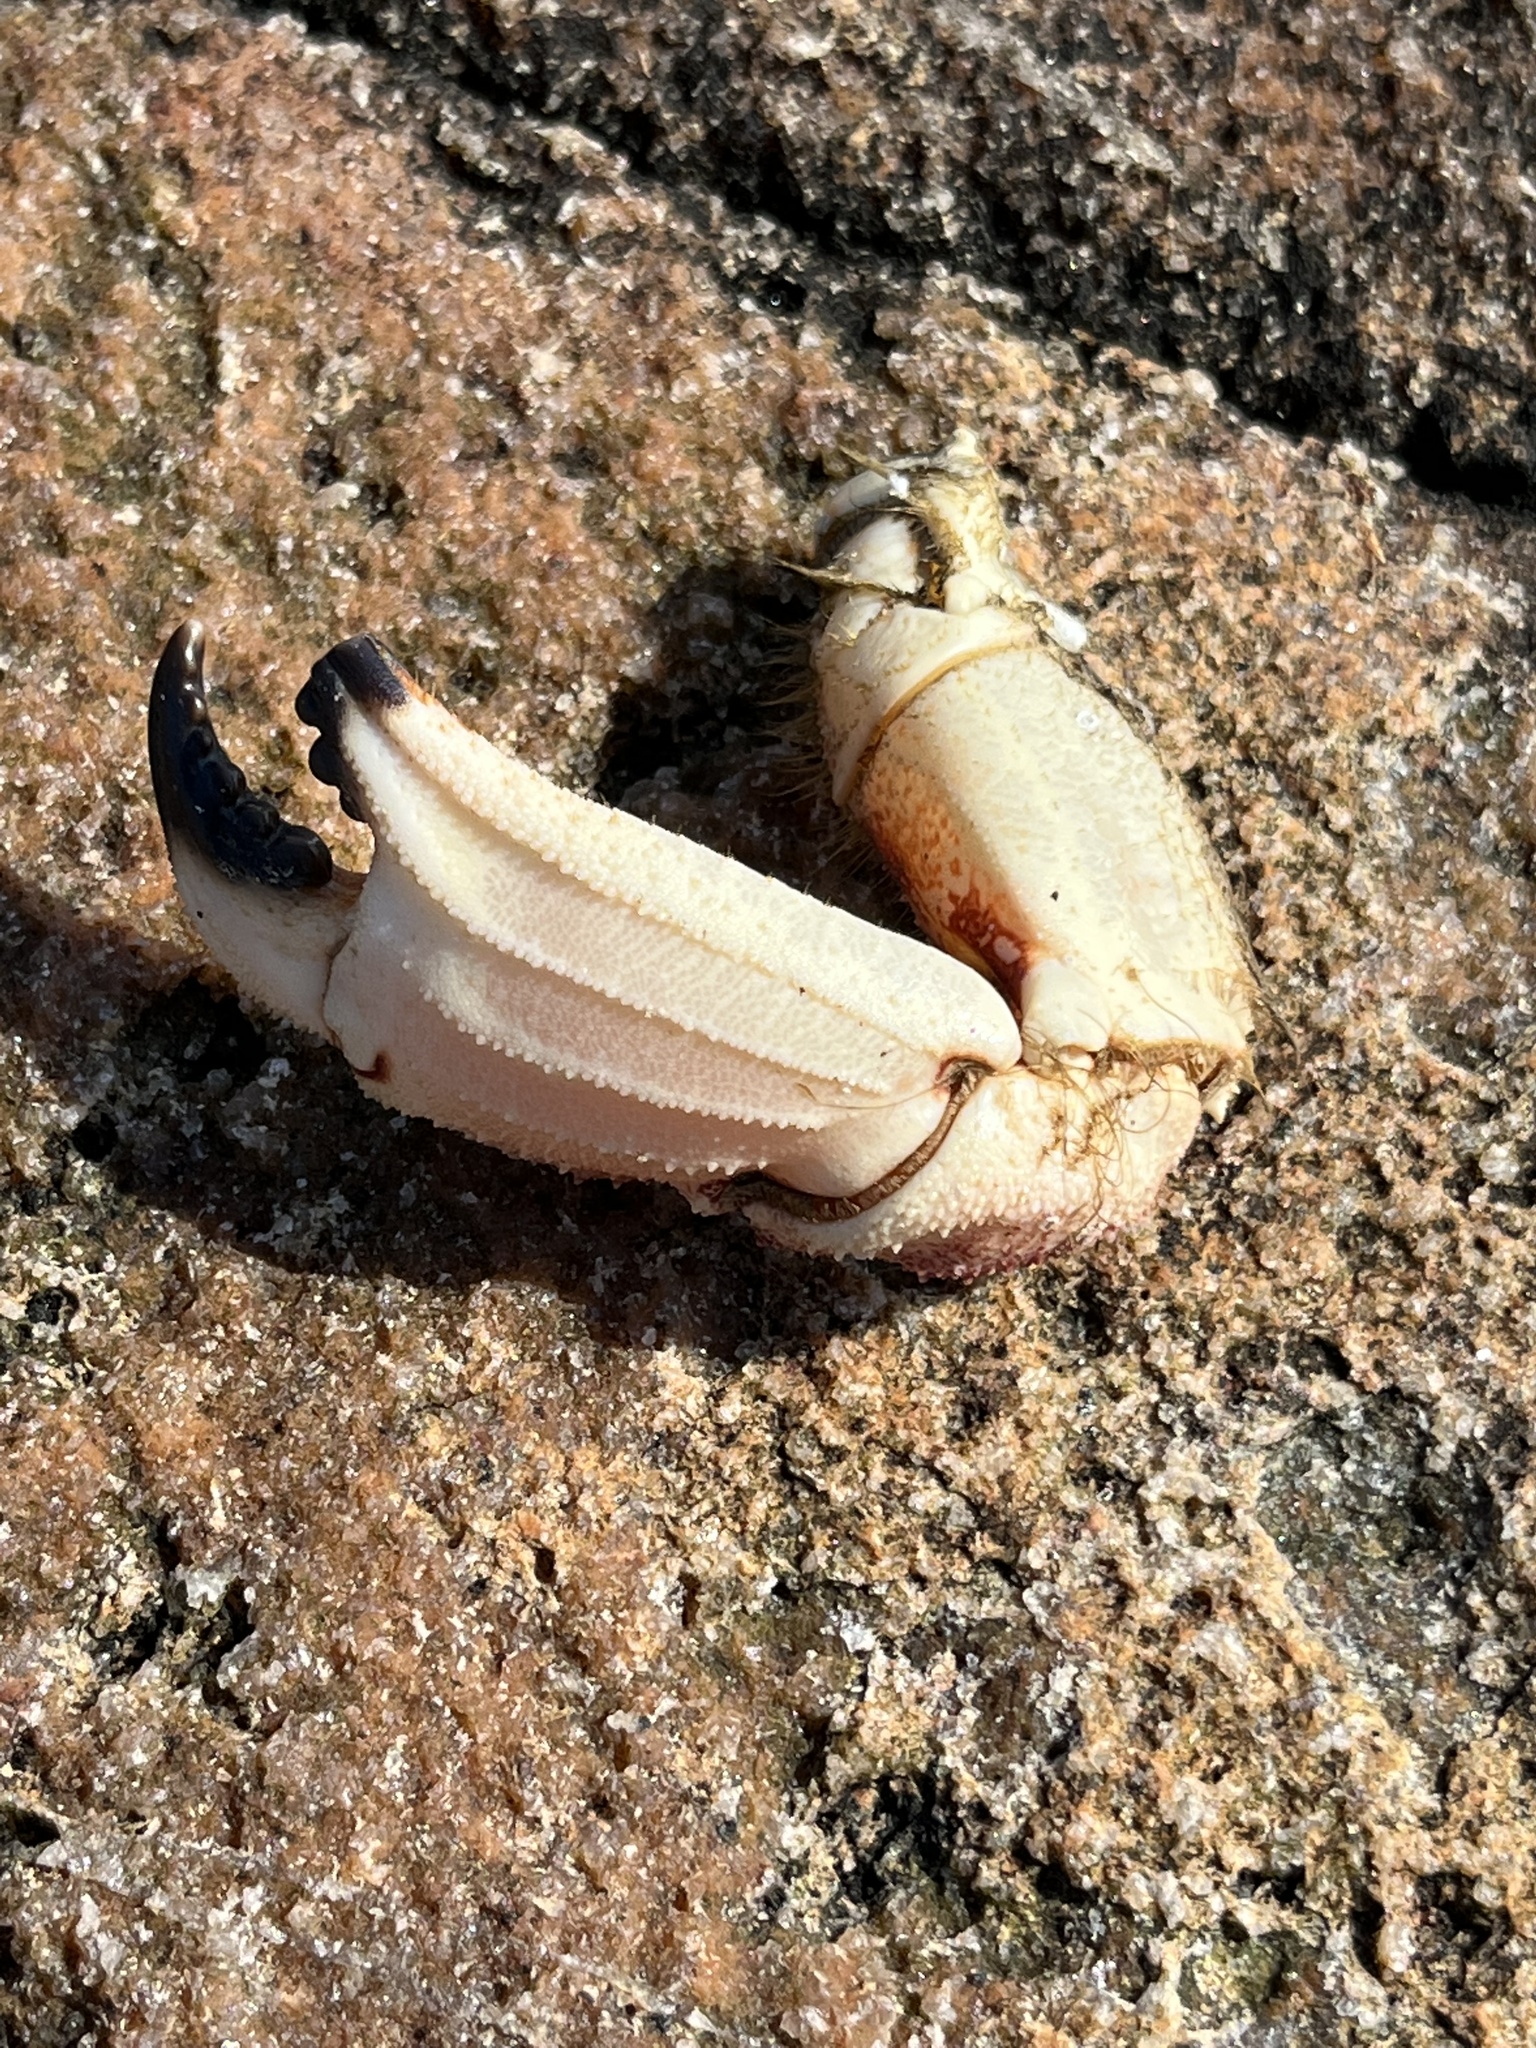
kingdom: Animalia
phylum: Arthropoda
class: Malacostraca
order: Decapoda
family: Cancridae
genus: Cancer
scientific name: Cancer borealis
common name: Jonah crab
